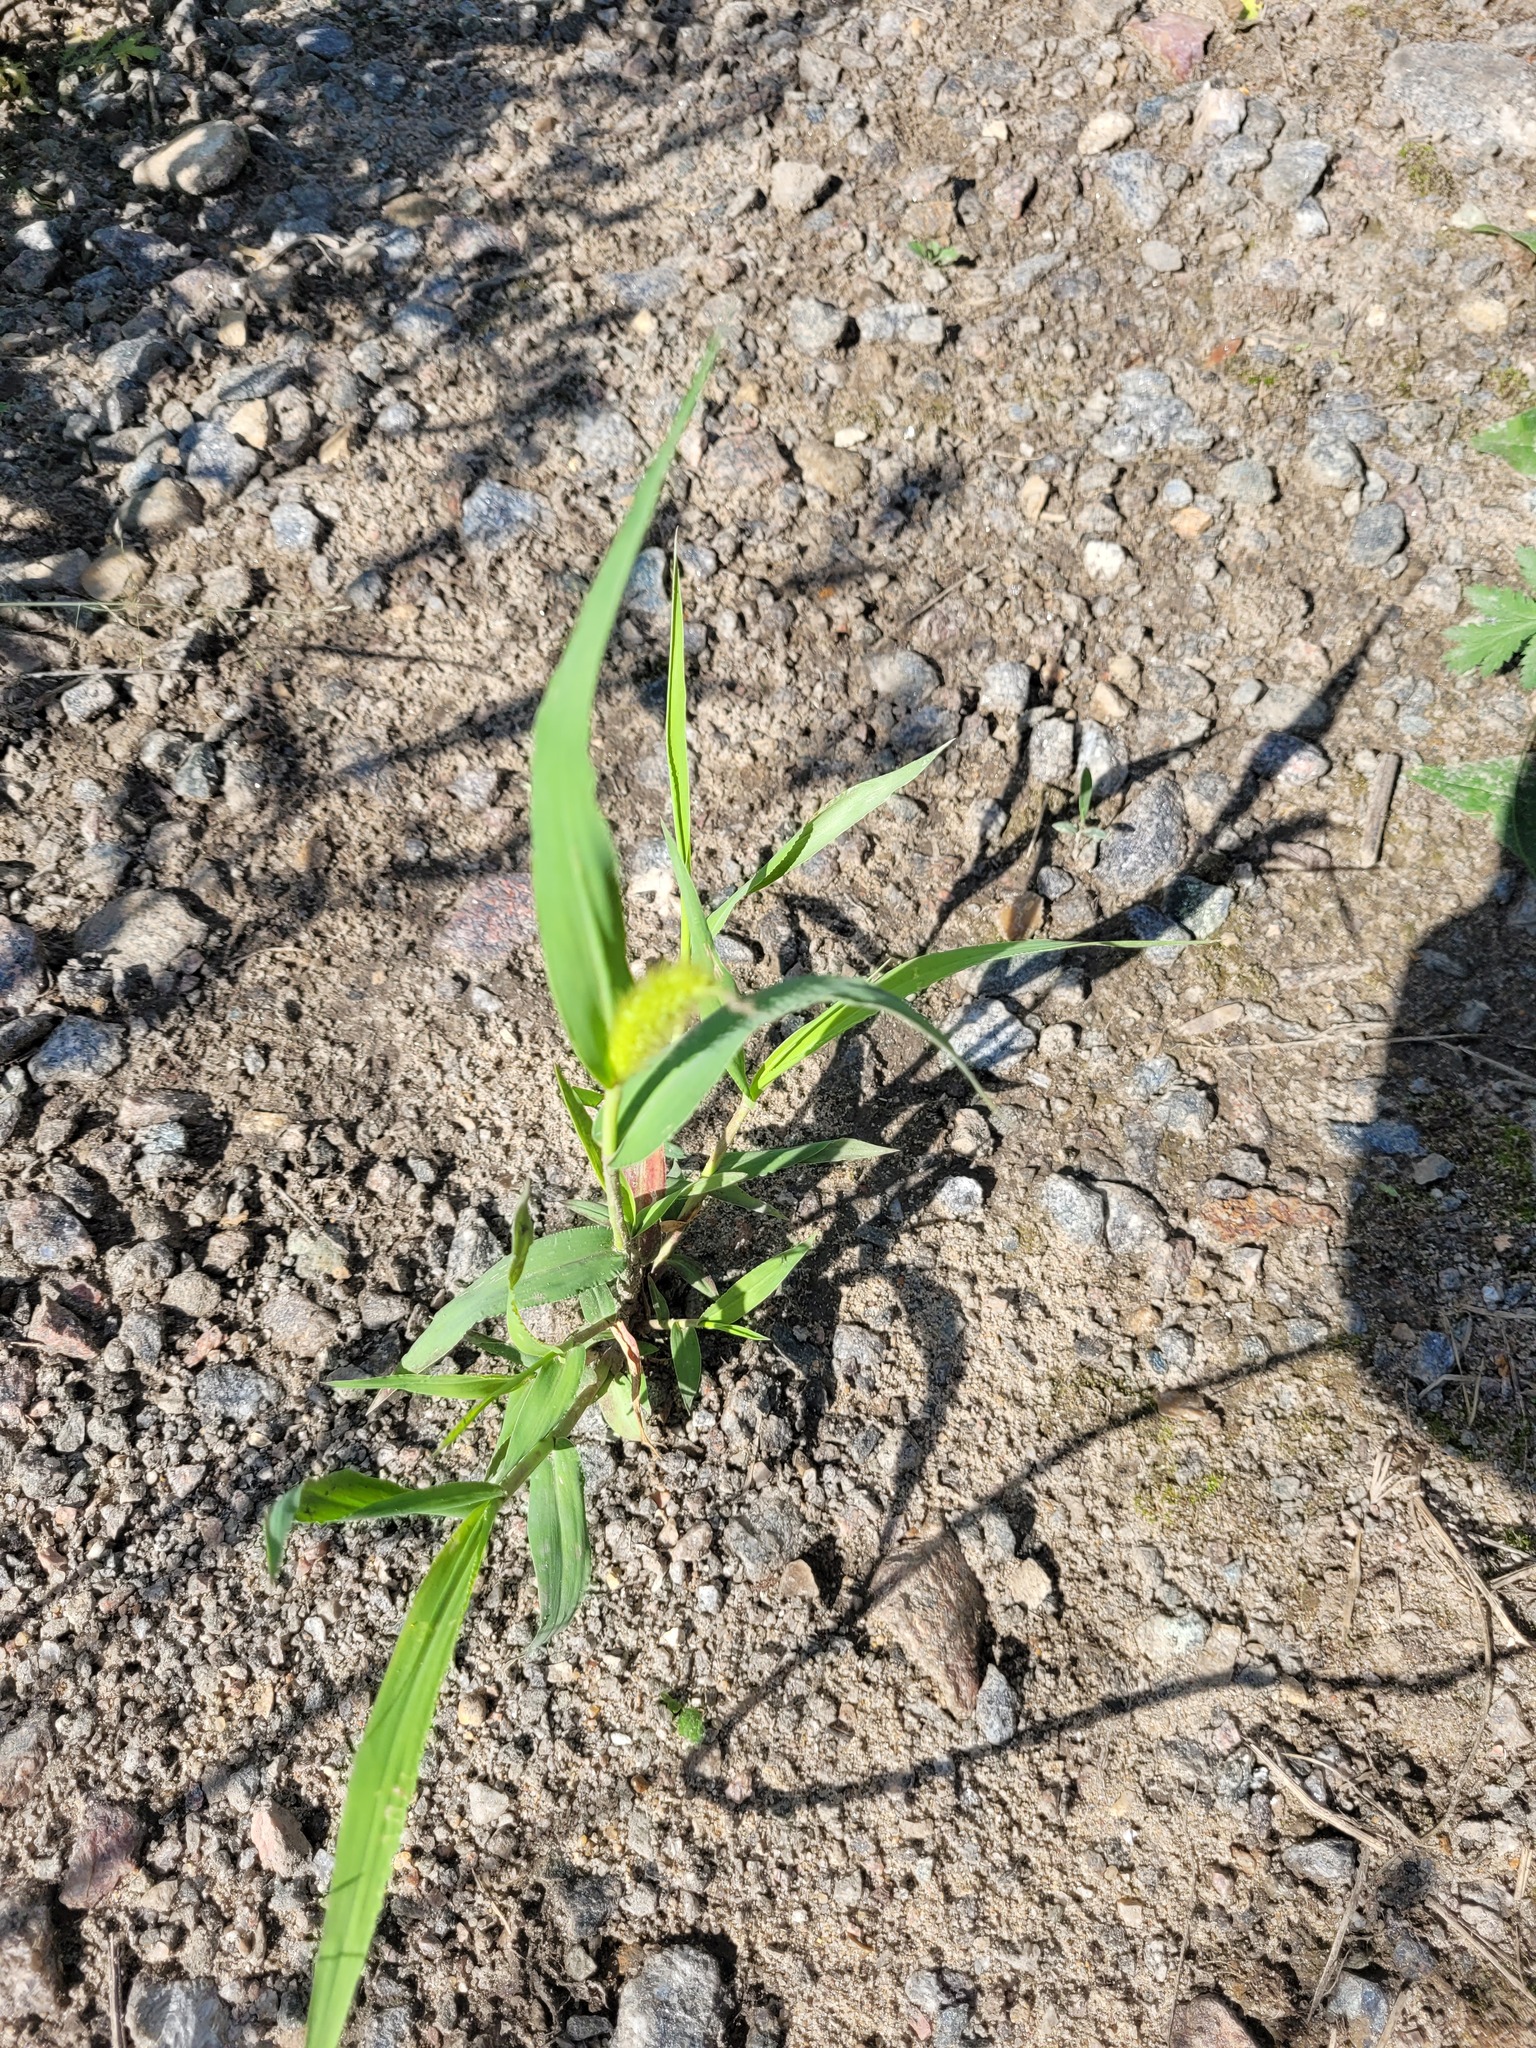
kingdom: Plantae
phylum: Tracheophyta
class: Liliopsida
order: Poales
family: Poaceae
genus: Setaria
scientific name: Setaria viridis
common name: Green bristlegrass
